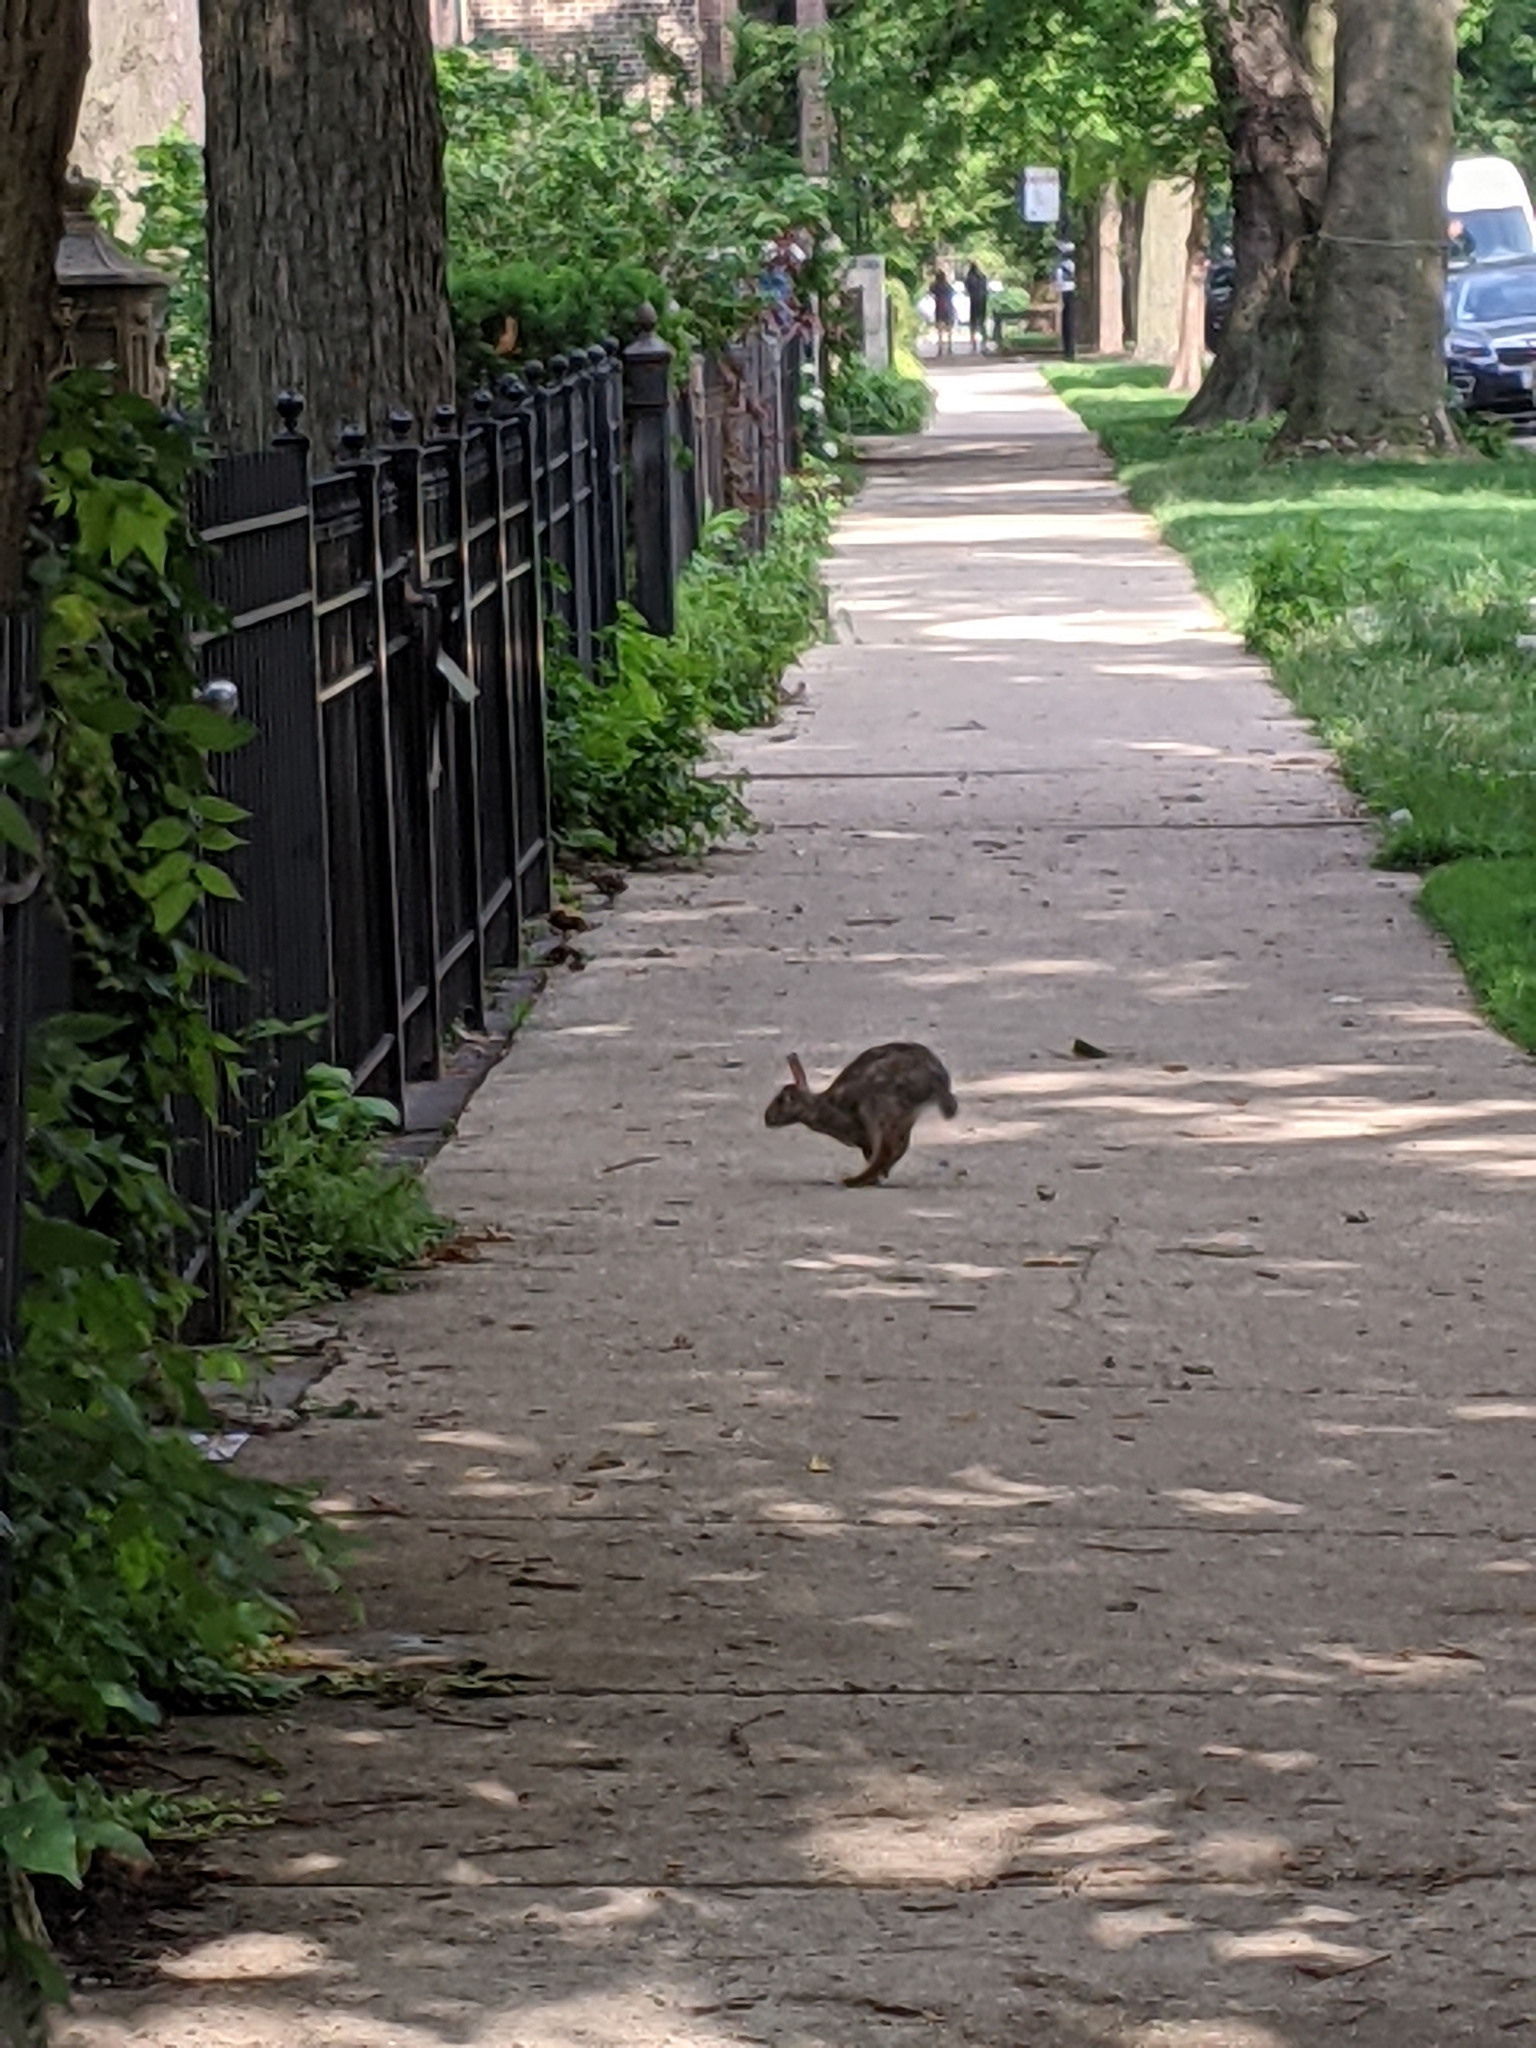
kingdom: Animalia
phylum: Chordata
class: Mammalia
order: Lagomorpha
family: Leporidae
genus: Sylvilagus
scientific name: Sylvilagus floridanus
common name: Eastern cottontail
